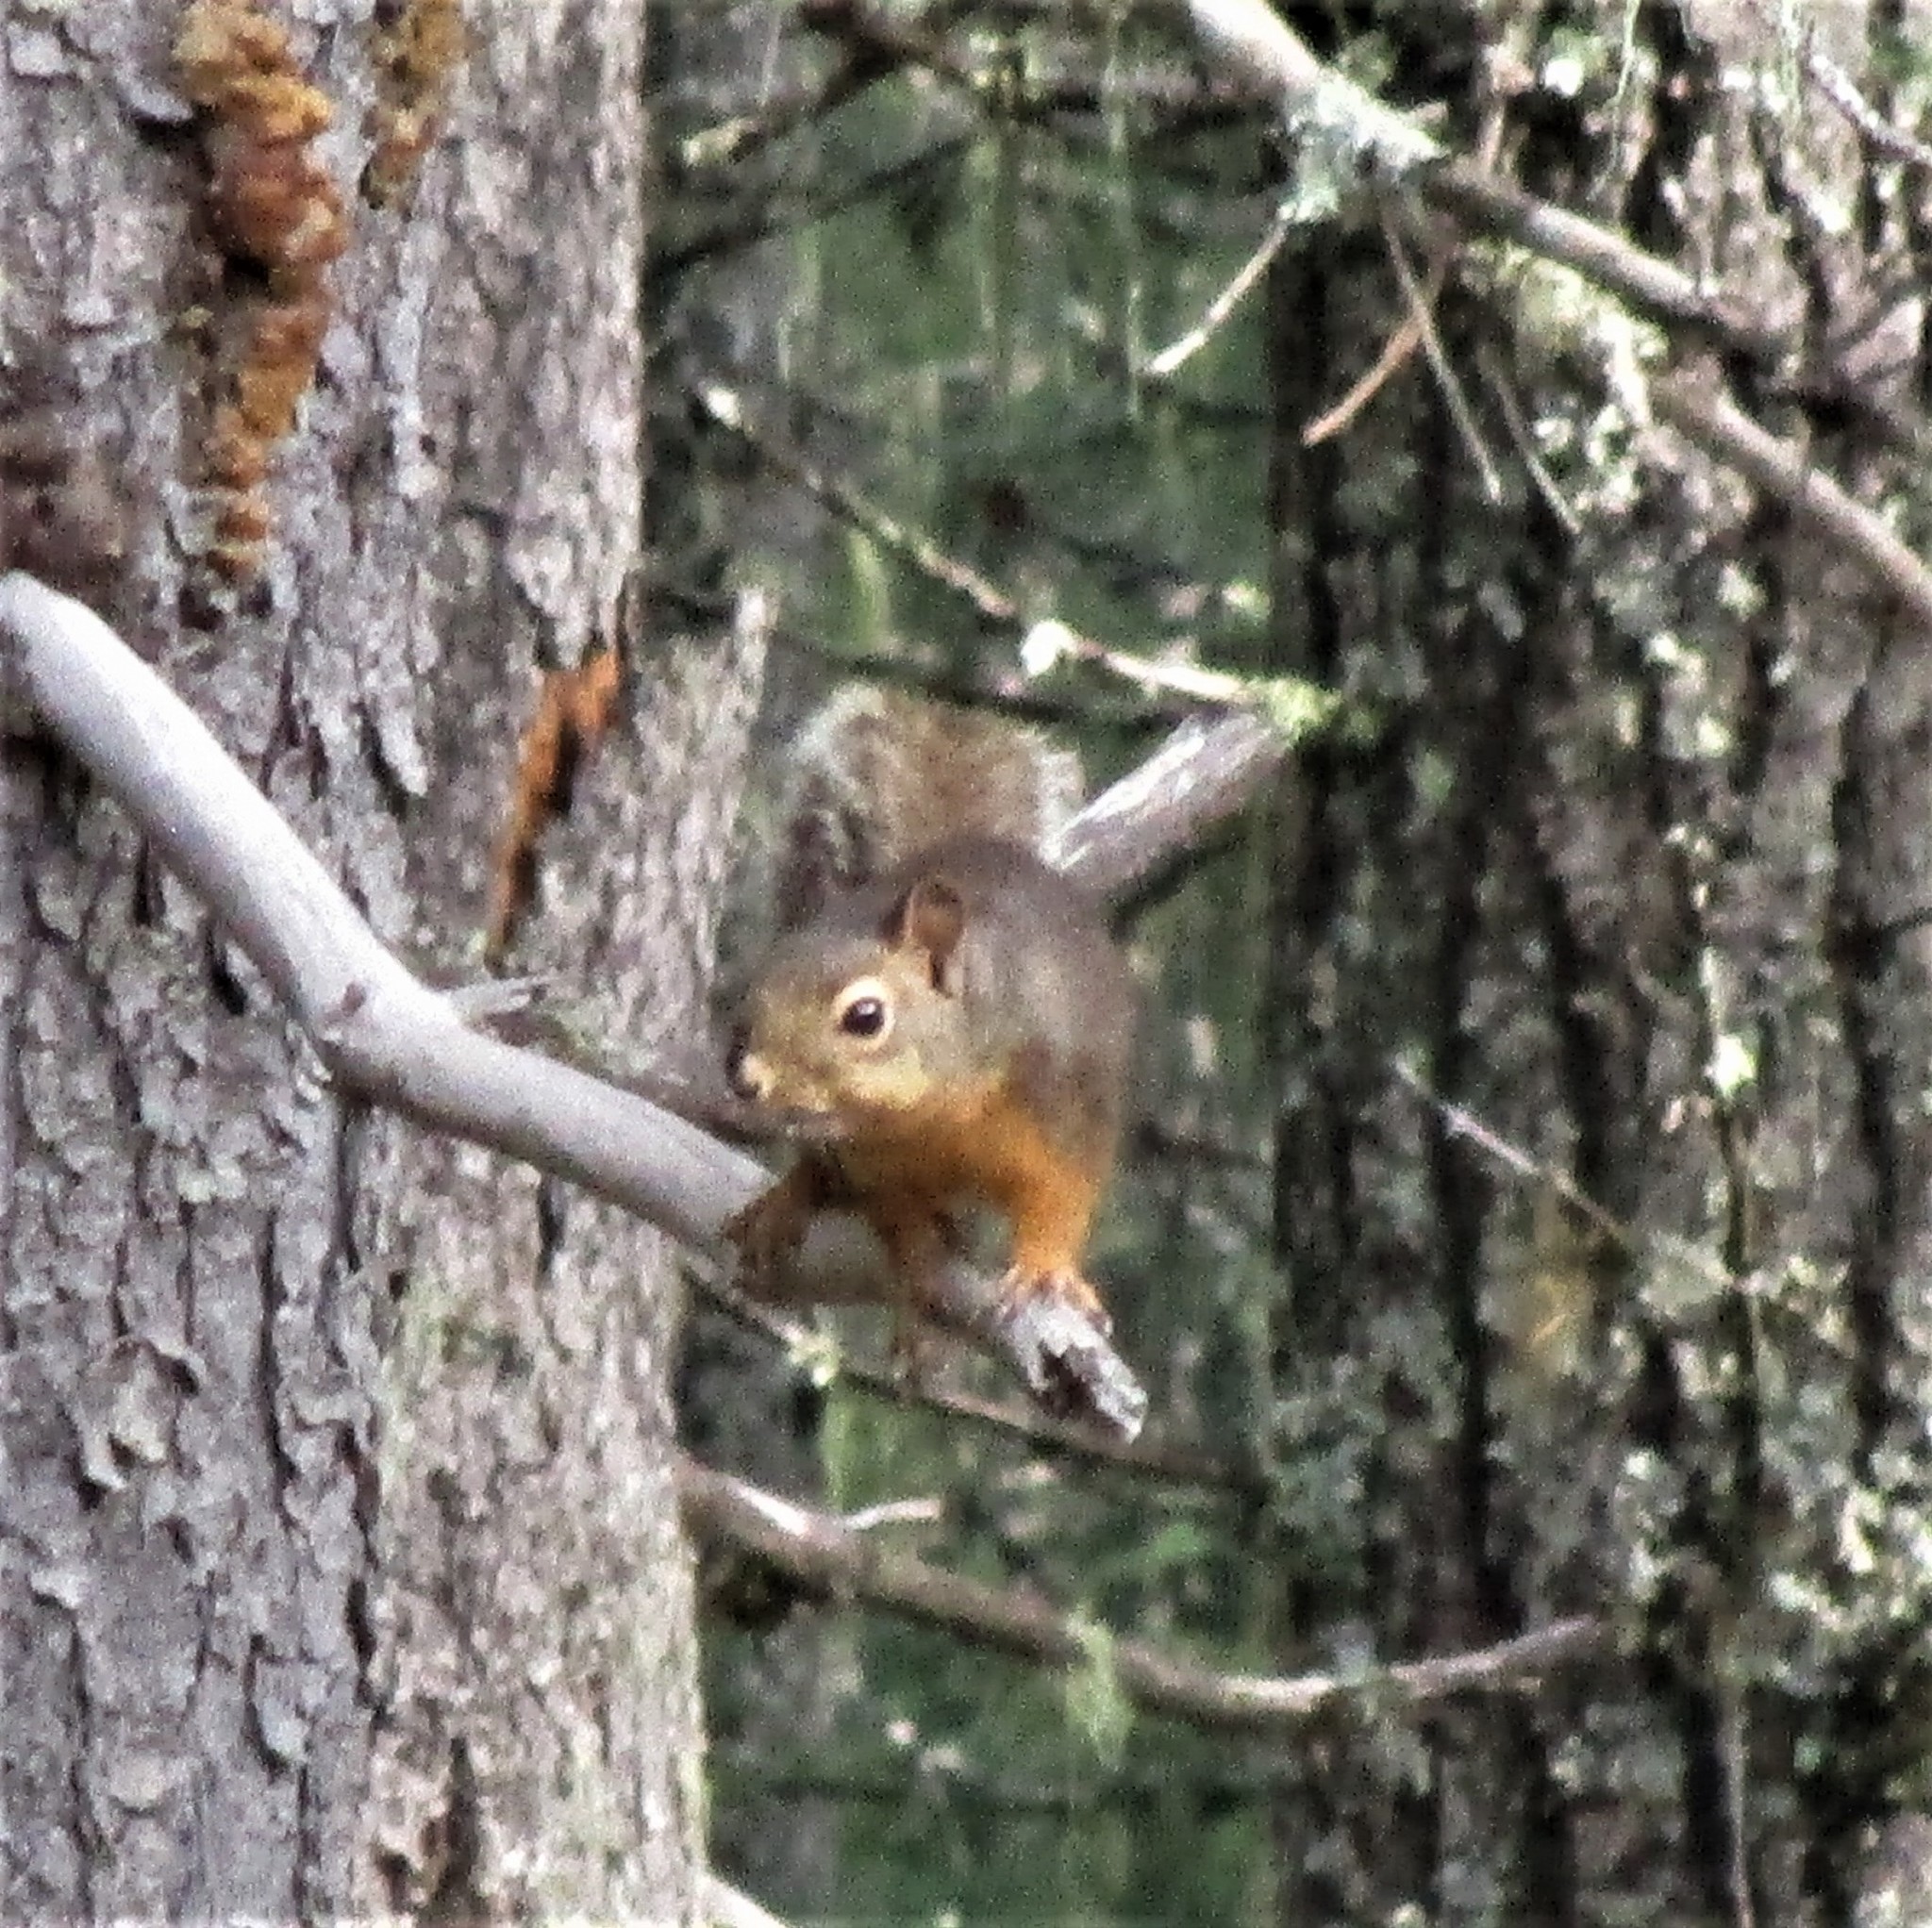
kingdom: Animalia
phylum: Chordata
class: Mammalia
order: Rodentia
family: Sciuridae
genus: Tamiasciurus
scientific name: Tamiasciurus douglasii
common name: Douglas's squirrel
